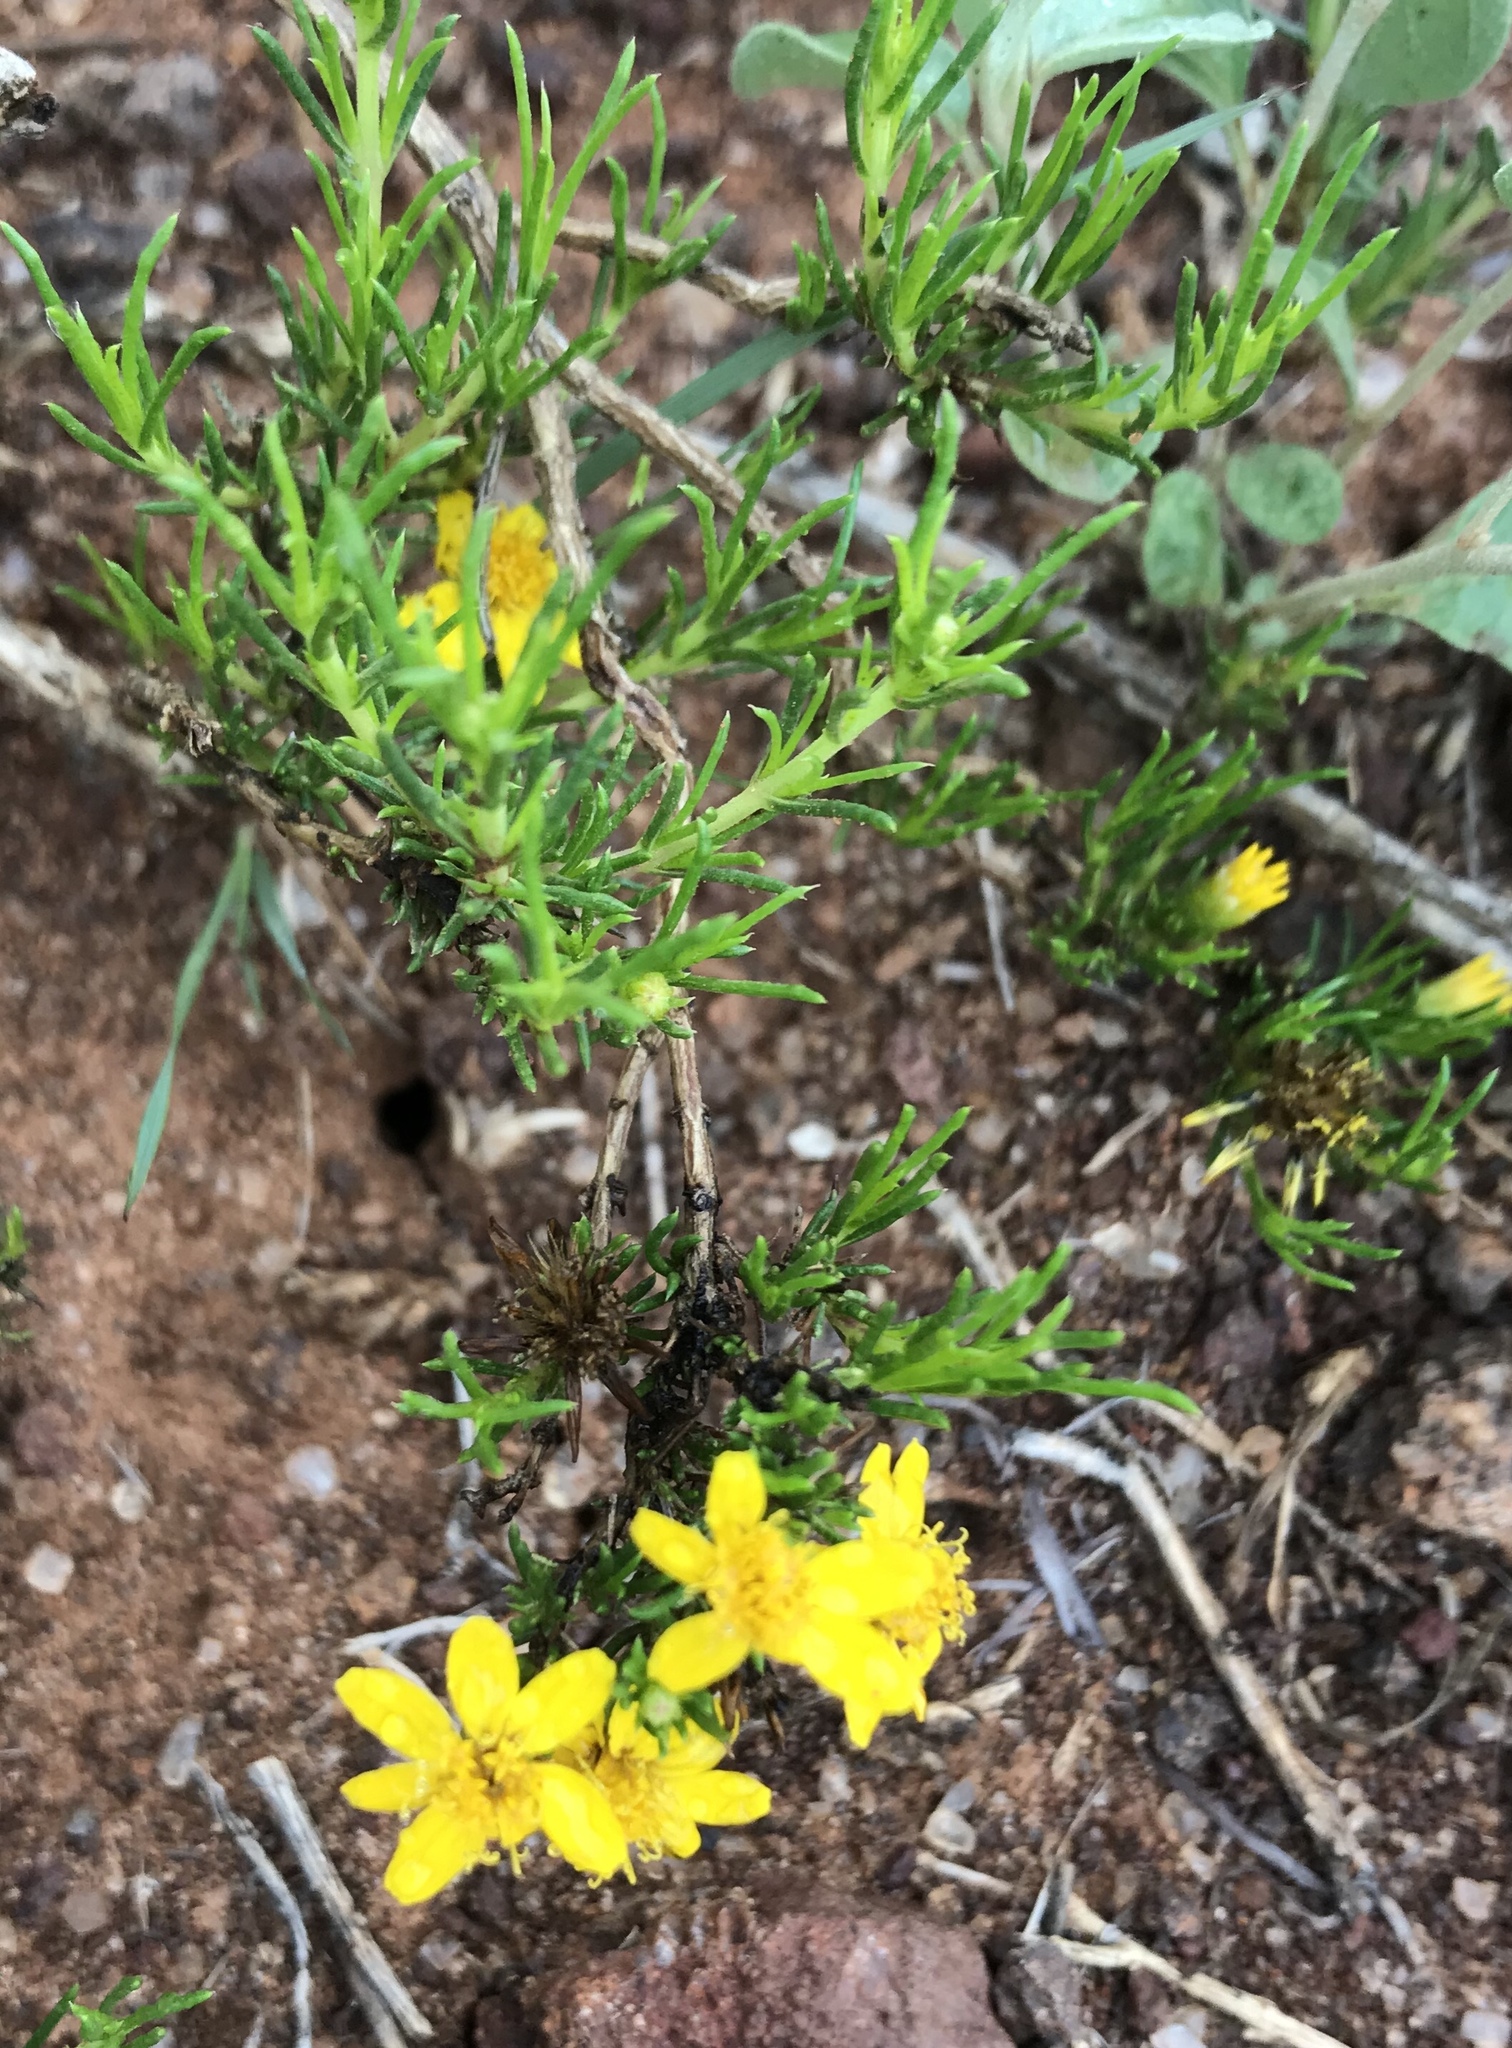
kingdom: Plantae
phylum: Tracheophyta
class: Magnoliopsida
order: Asterales
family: Asteraceae
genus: Thymophylla
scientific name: Thymophylla acerosa
